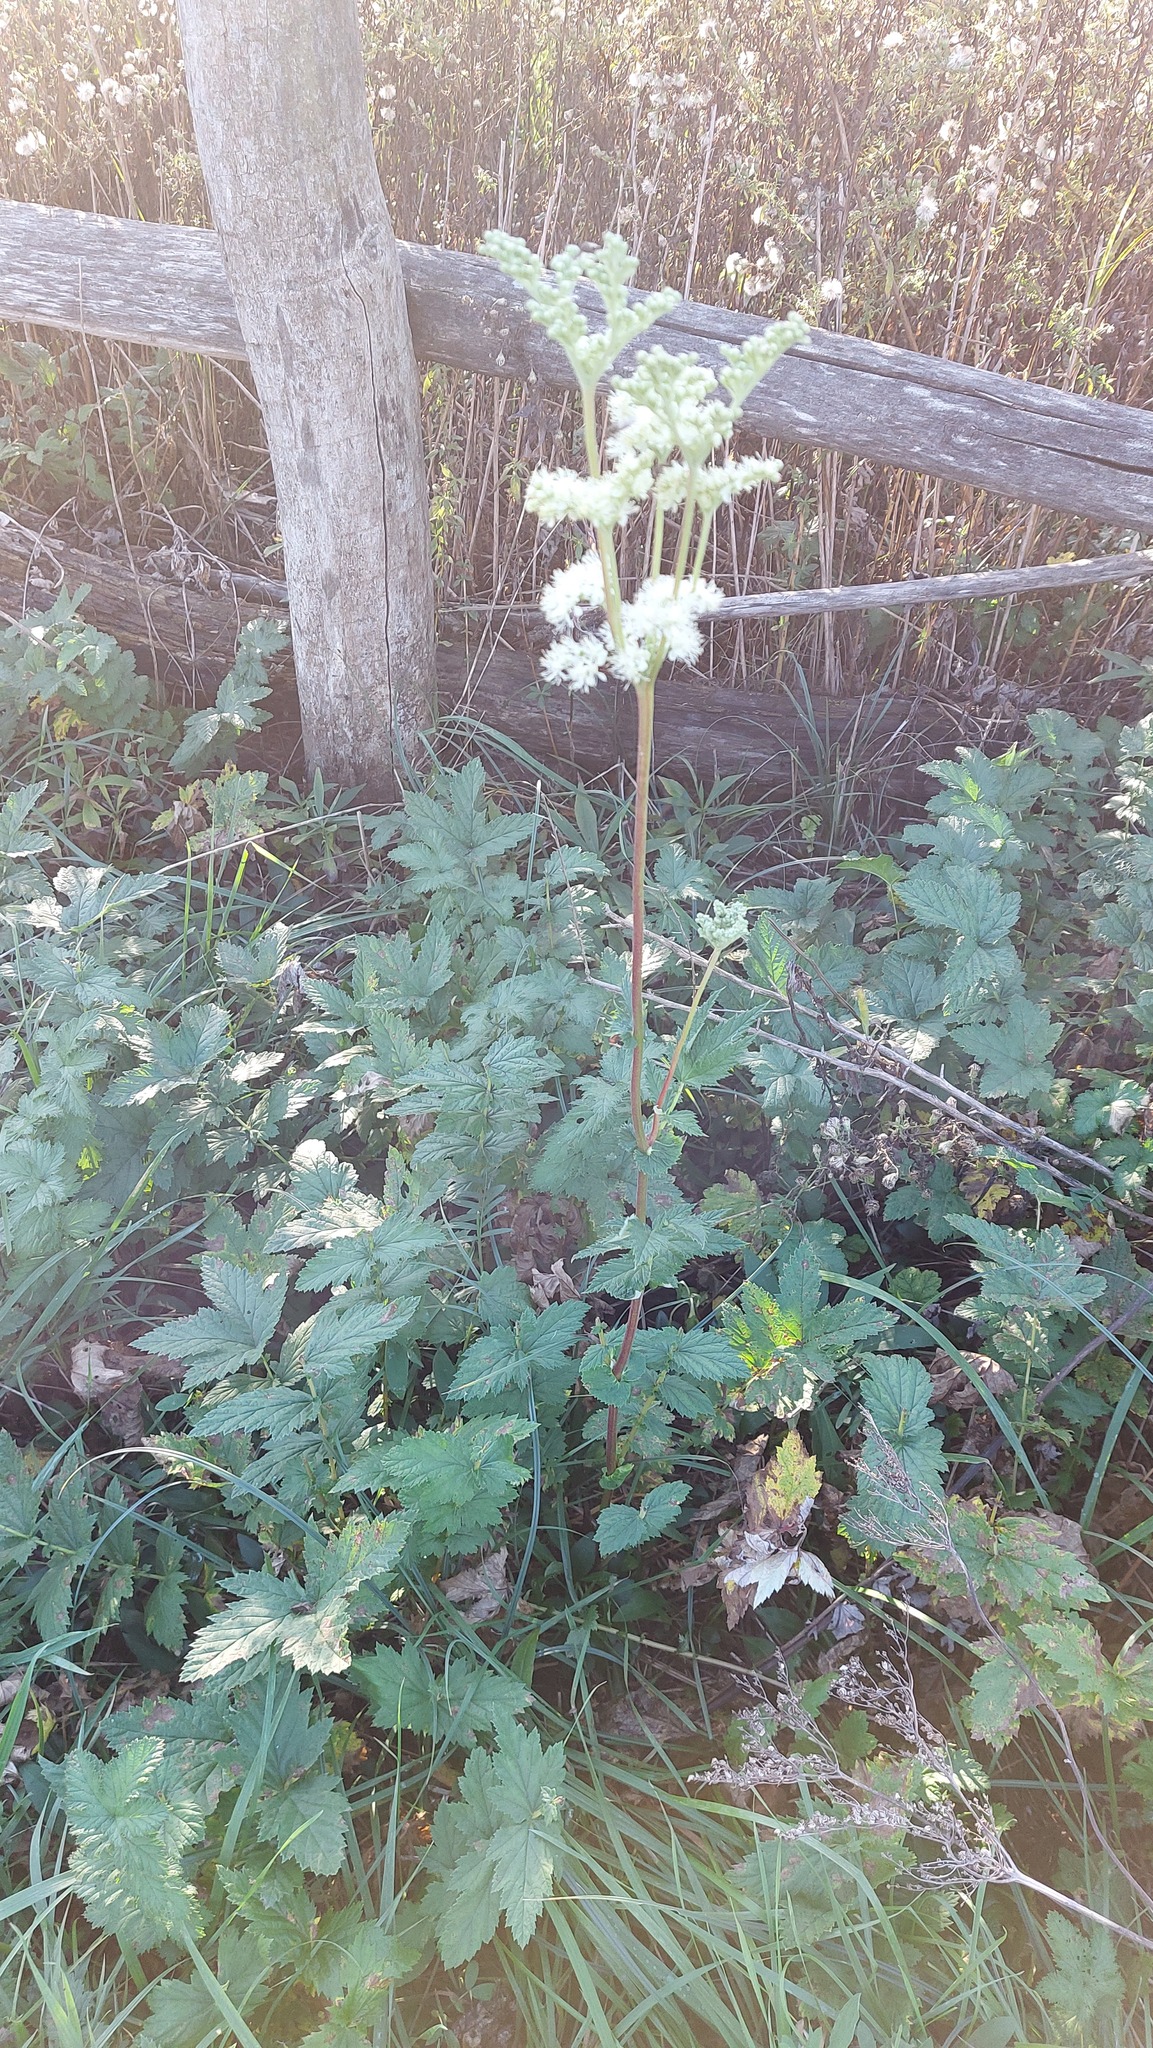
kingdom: Plantae
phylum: Tracheophyta
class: Magnoliopsida
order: Rosales
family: Rosaceae
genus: Filipendula
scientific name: Filipendula ulmaria
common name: Meadowsweet
